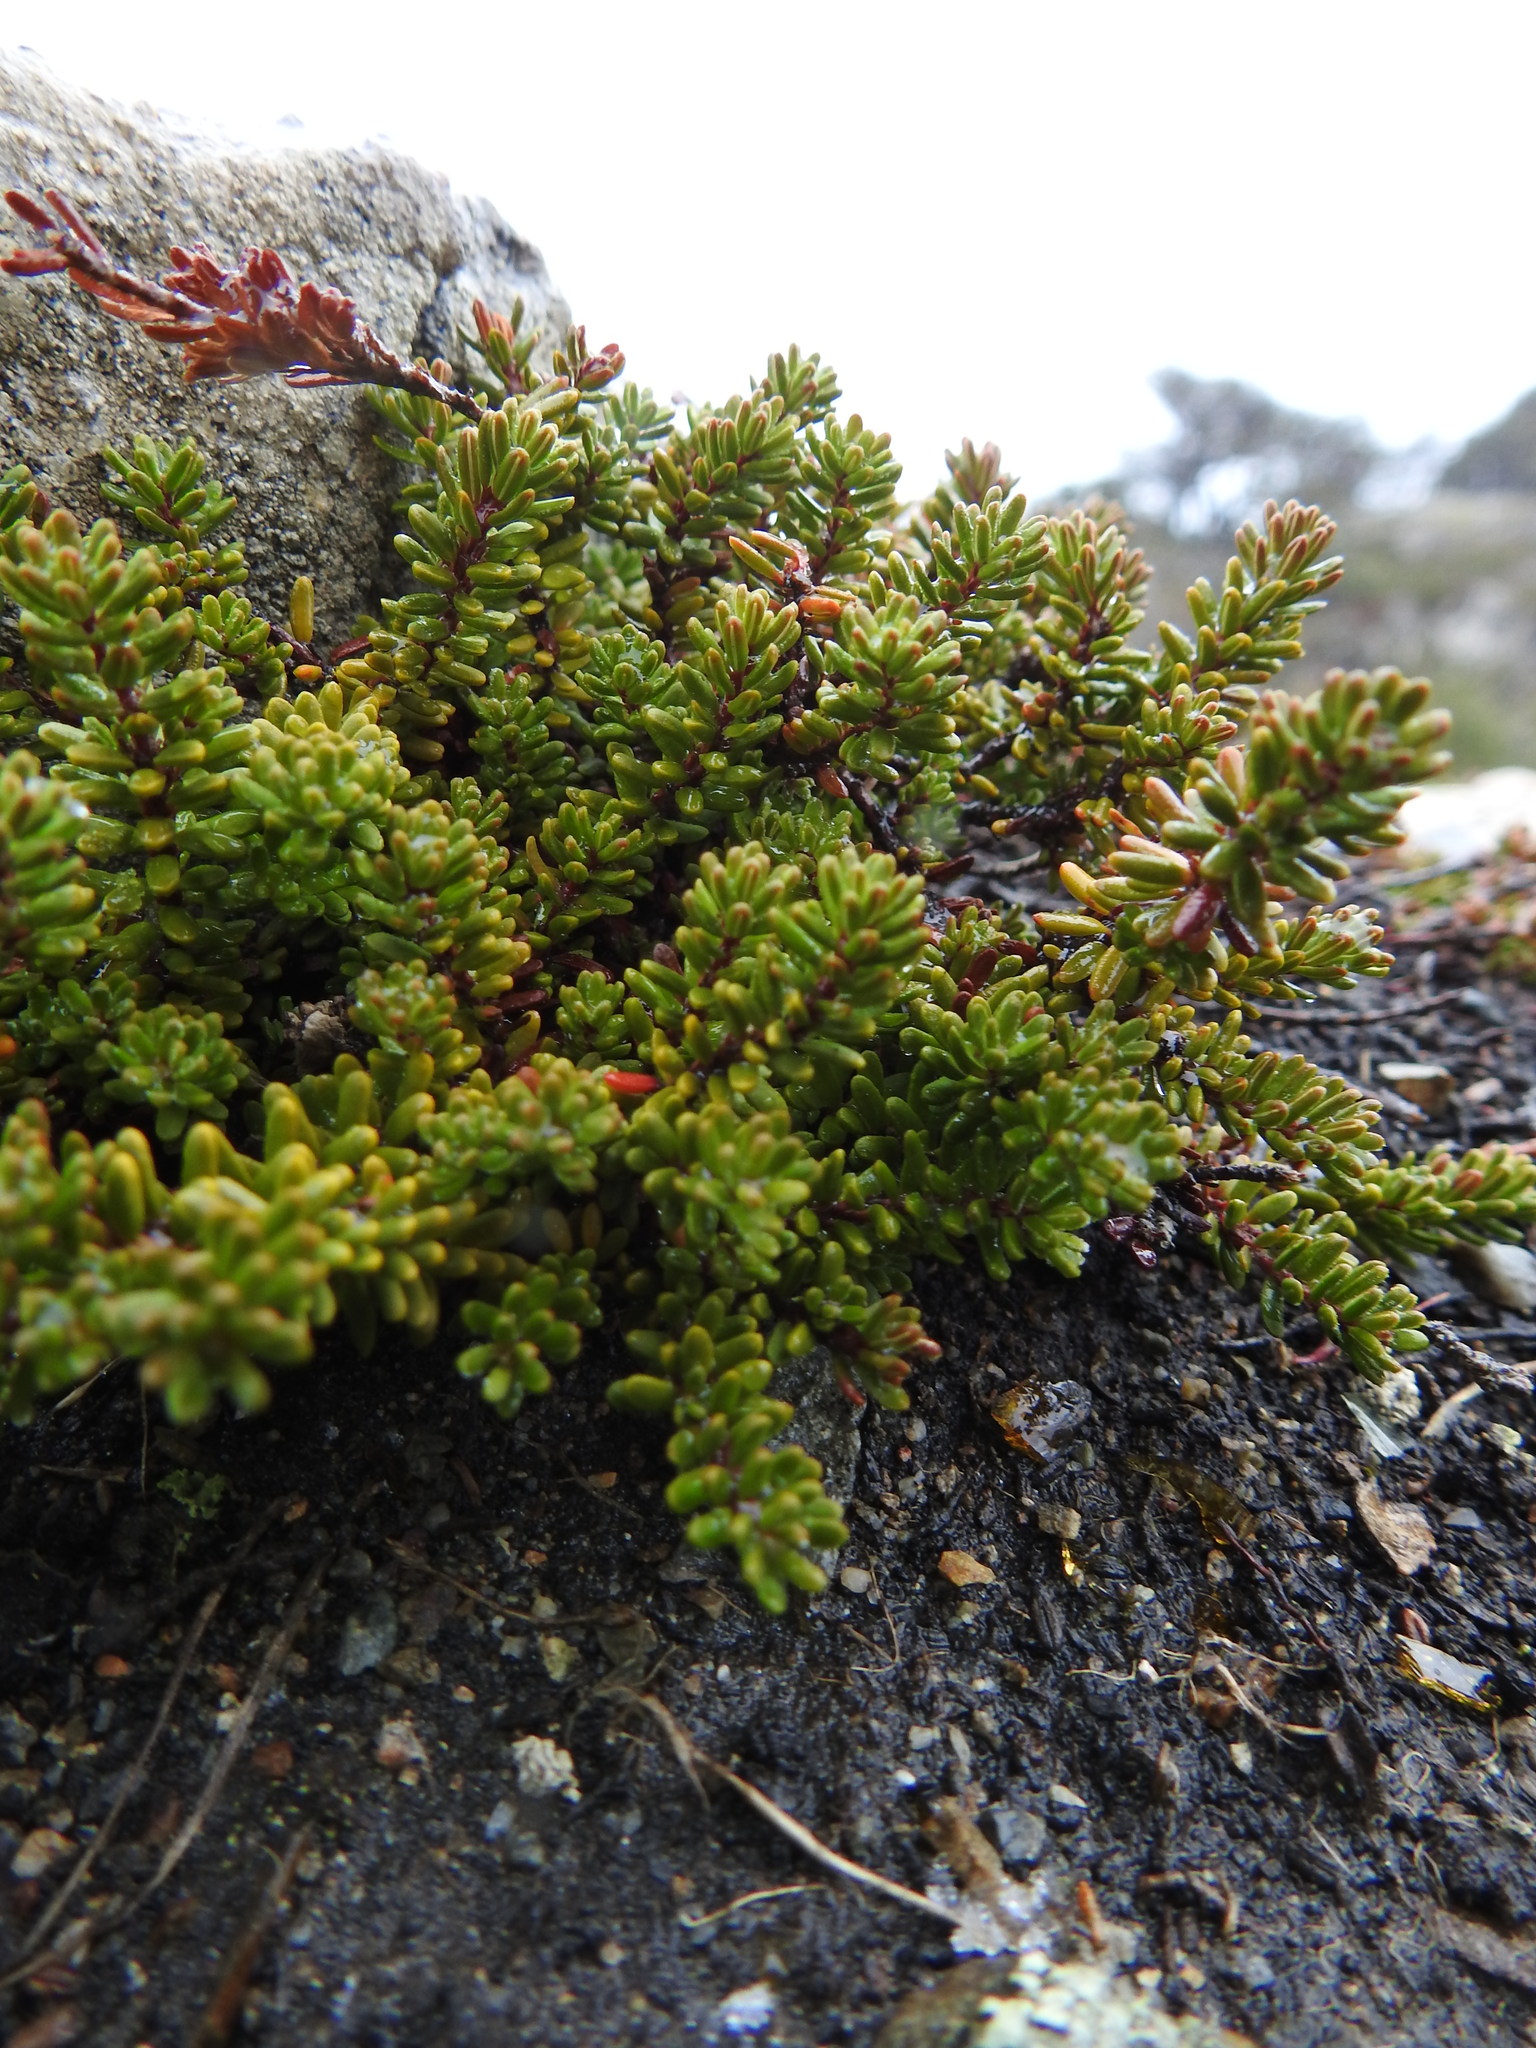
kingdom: Plantae
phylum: Tracheophyta
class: Magnoliopsida
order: Ericales
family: Ericaceae
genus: Empetrum
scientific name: Empetrum rubrum
